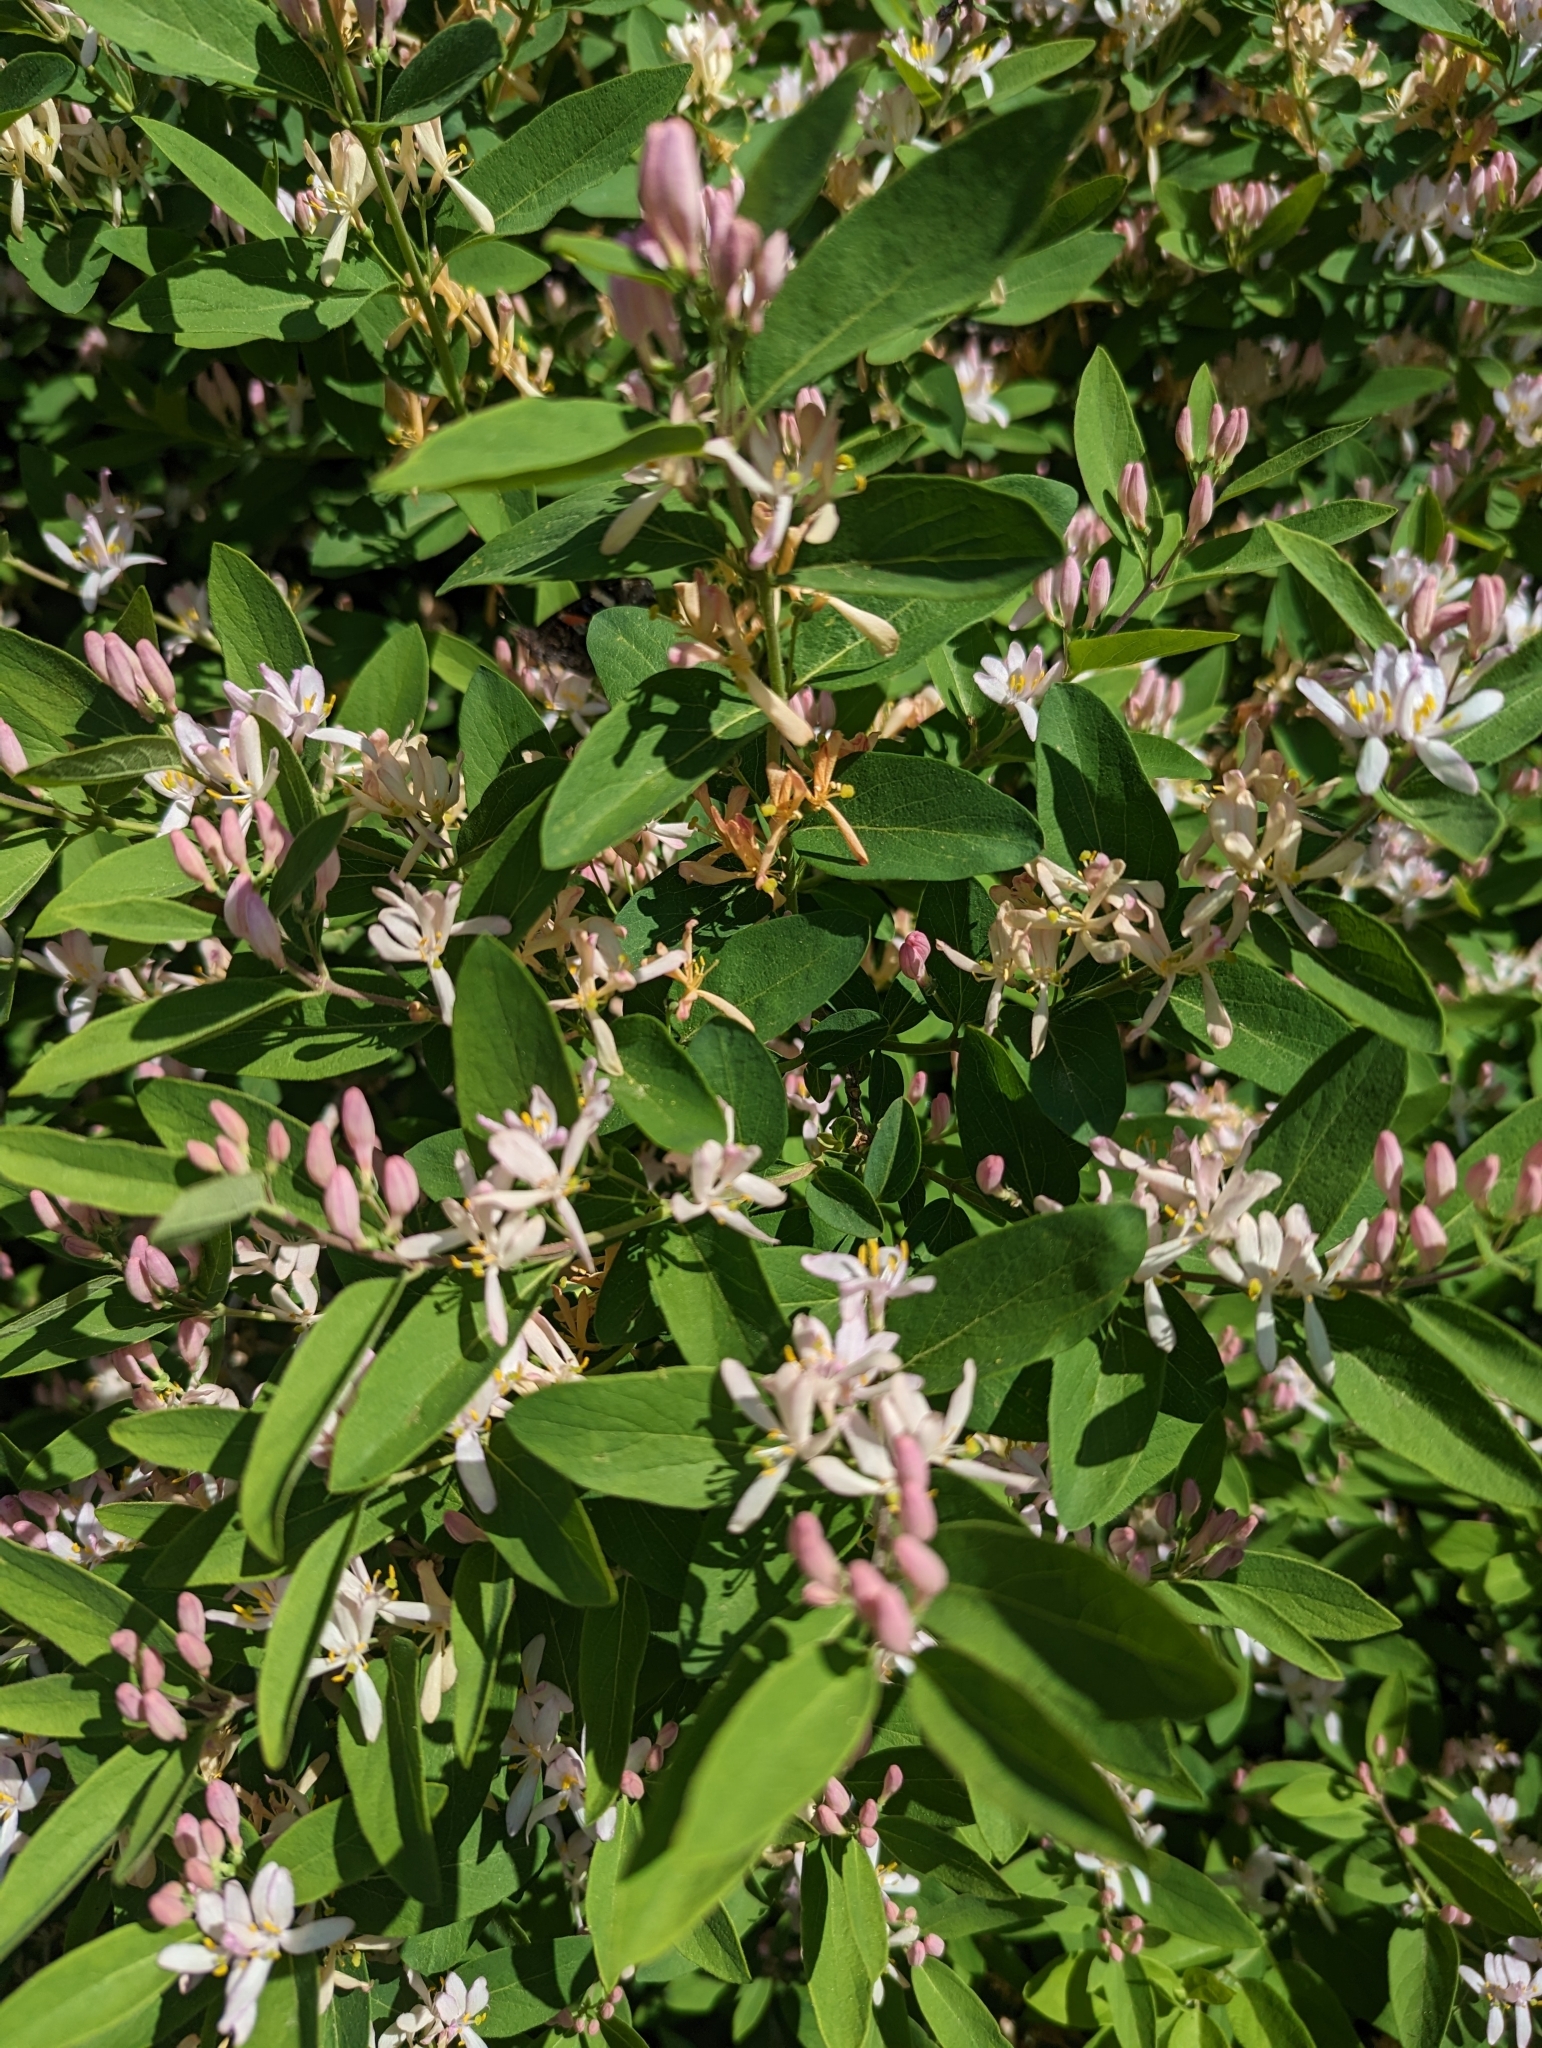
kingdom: Plantae
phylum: Tracheophyta
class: Magnoliopsida
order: Dipsacales
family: Caprifoliaceae
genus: Lonicera
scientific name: Lonicera tatarica
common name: Tatarian honeysuckle
